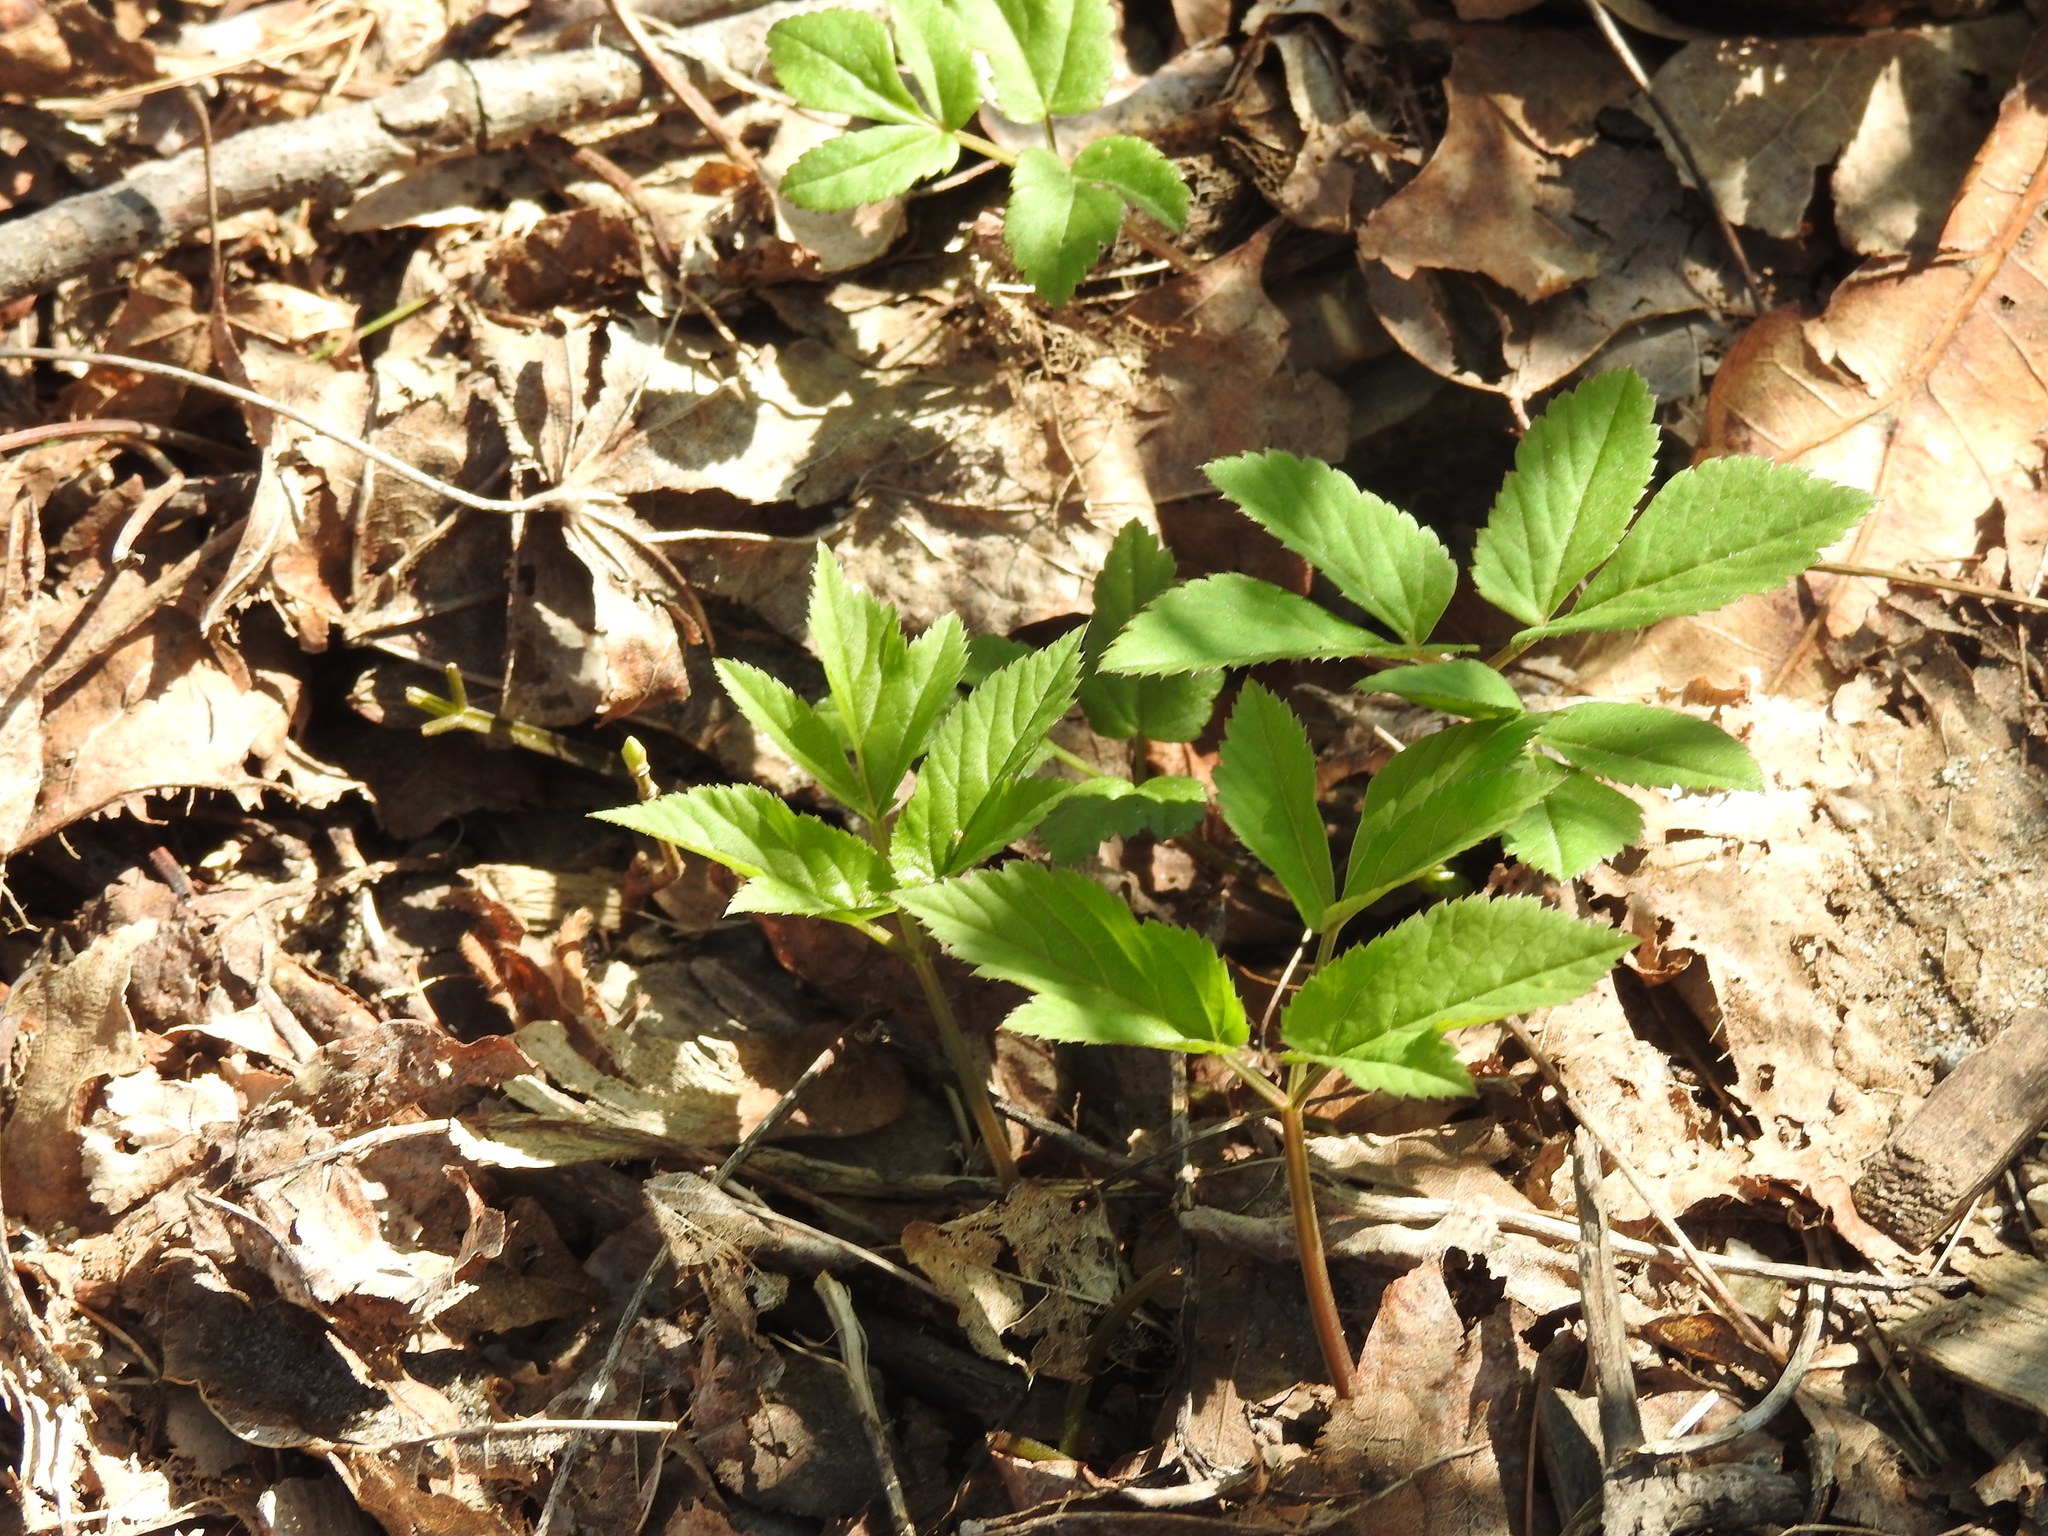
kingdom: Plantae
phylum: Tracheophyta
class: Magnoliopsida
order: Apiales
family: Apiaceae
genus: Aegopodium
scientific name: Aegopodium podagraria
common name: Ground-elder
